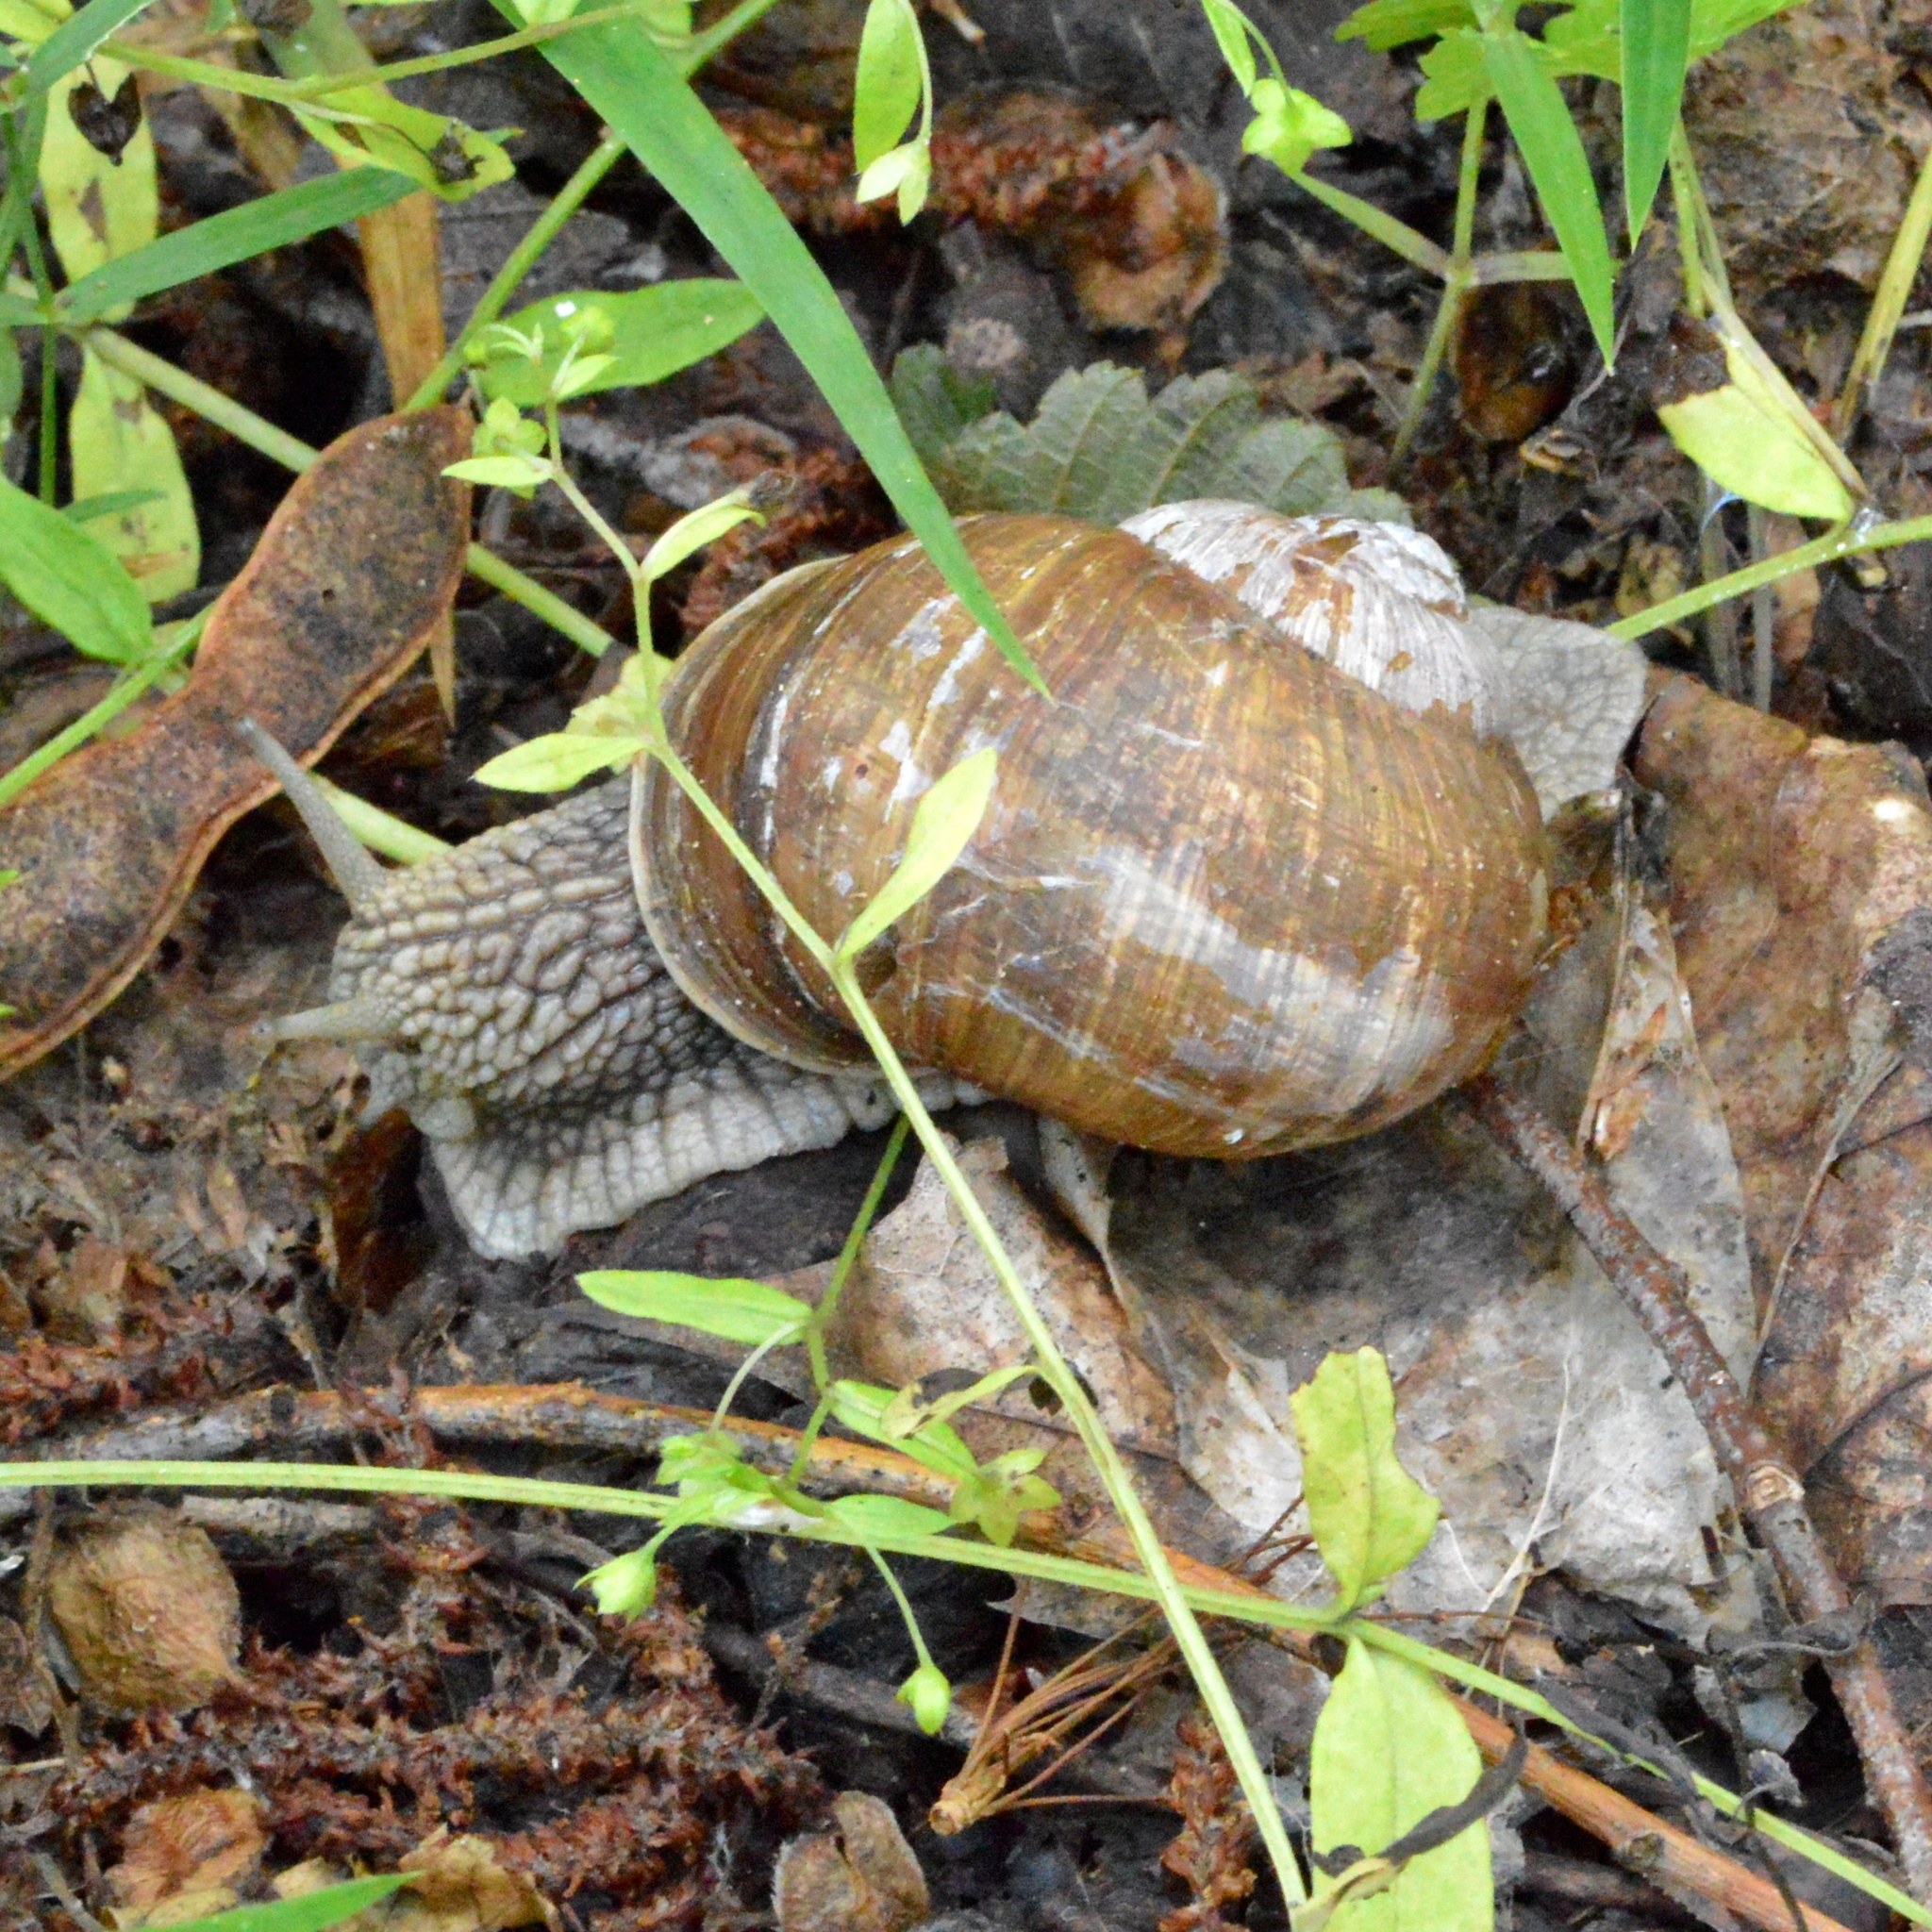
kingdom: Animalia
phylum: Mollusca
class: Gastropoda
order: Stylommatophora
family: Helicidae
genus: Helix
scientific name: Helix pomatia
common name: Roman snail
